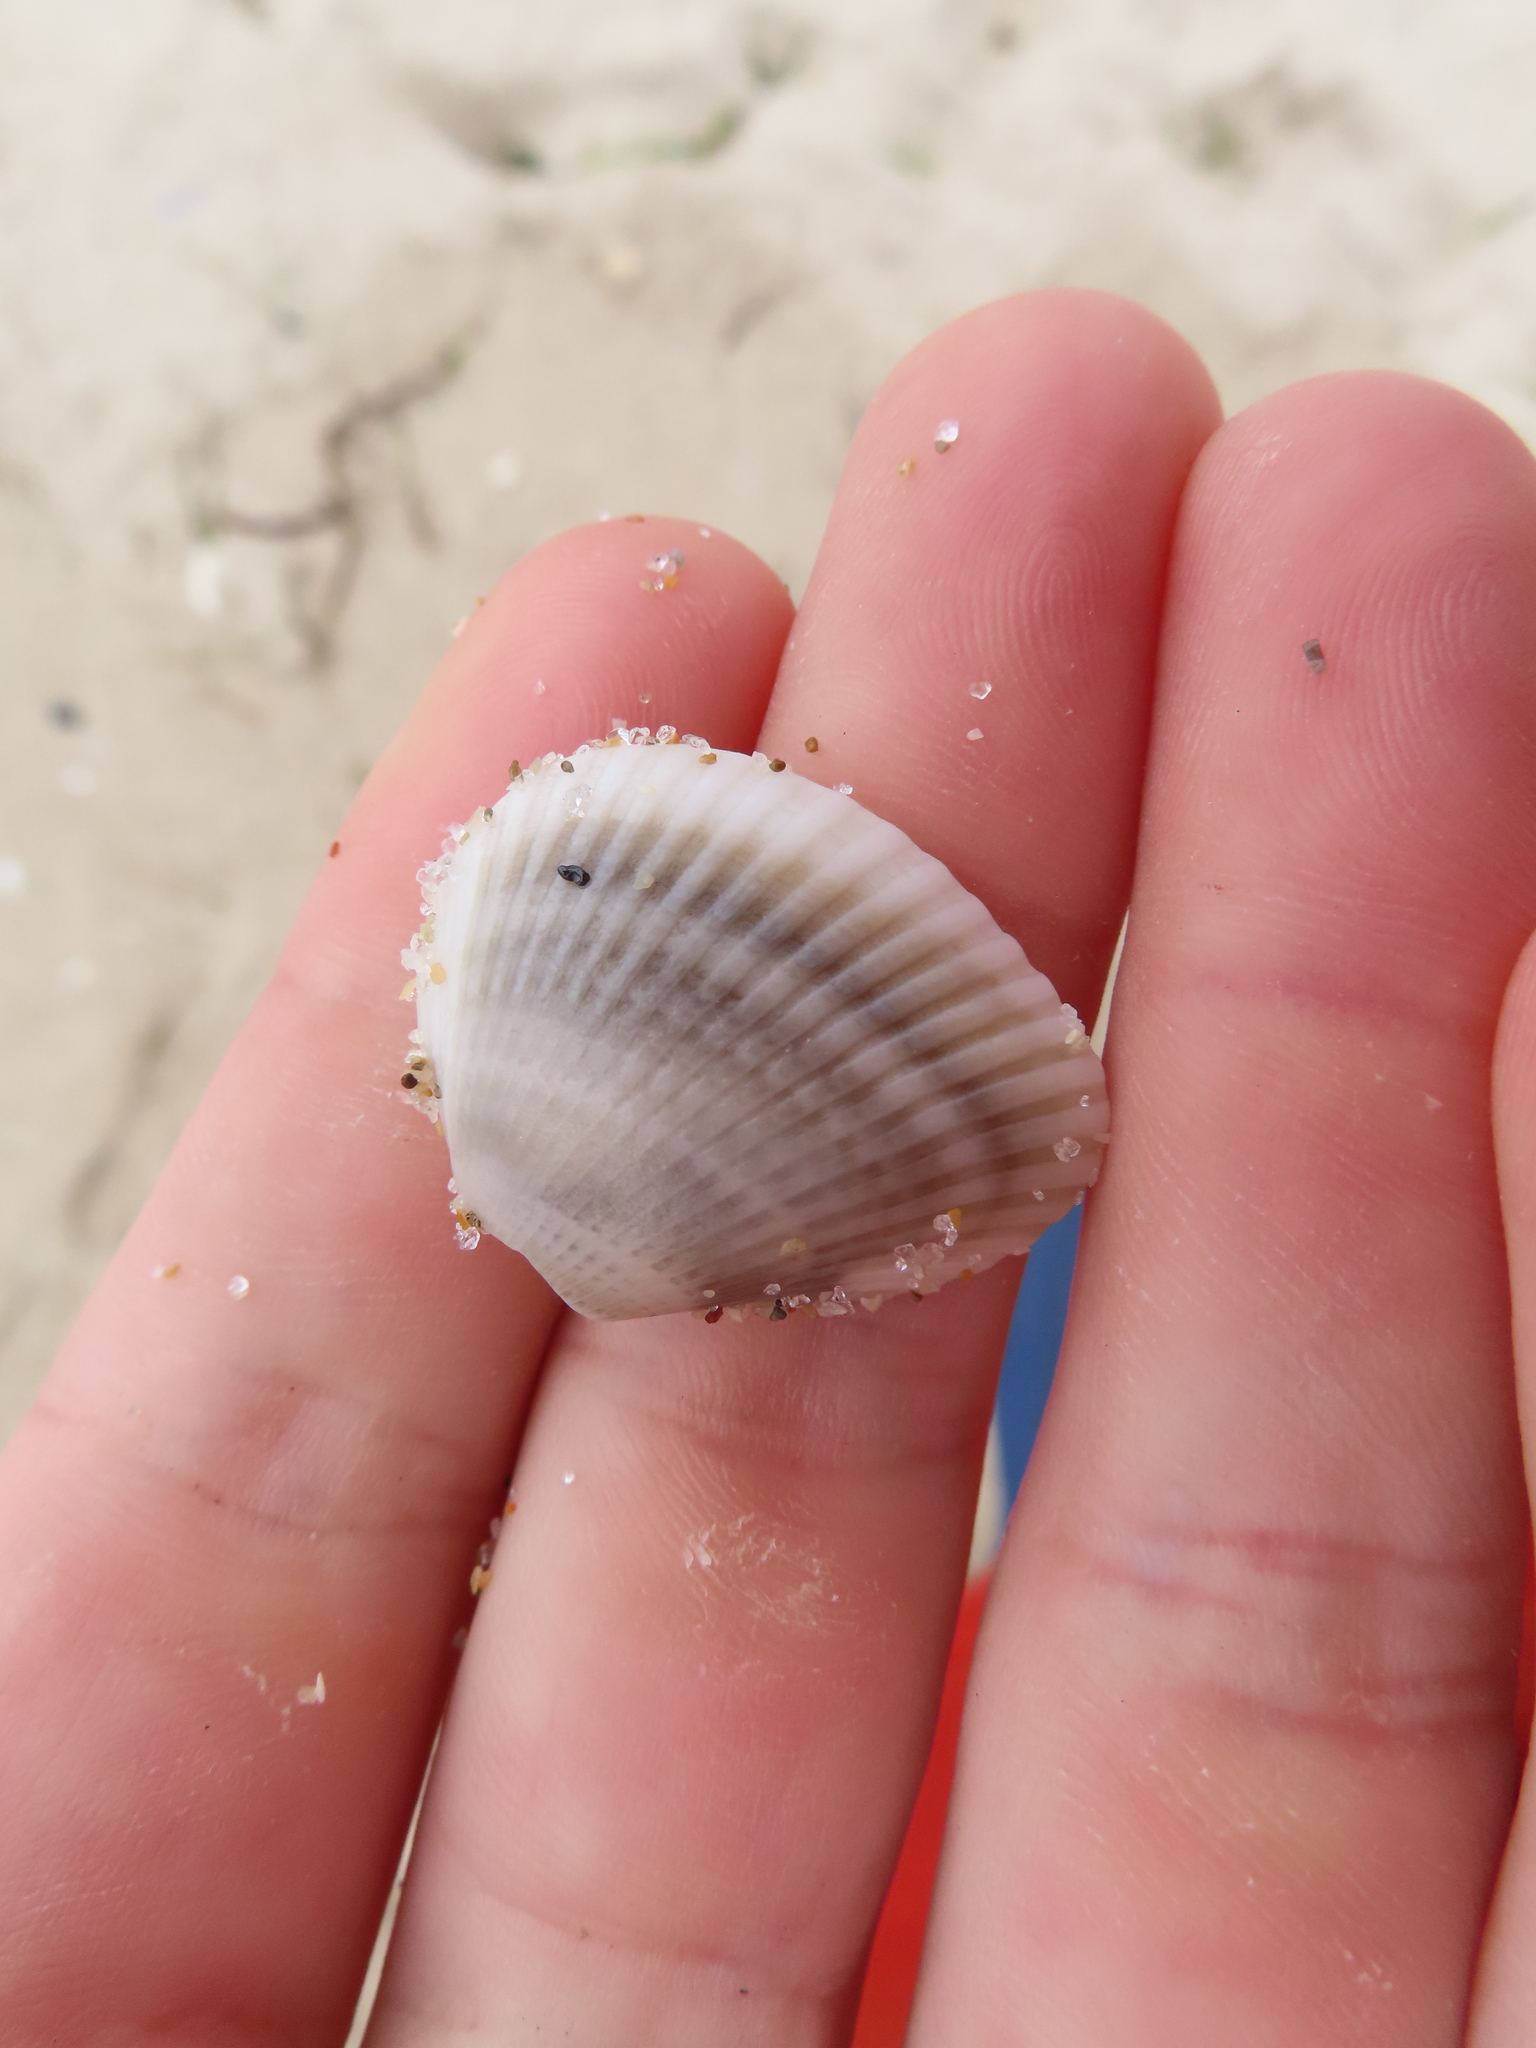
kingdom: Animalia
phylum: Mollusca
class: Bivalvia
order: Arcida
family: Noetiidae
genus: Noetia
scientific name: Noetia ponderosa
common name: Ponderous ark
